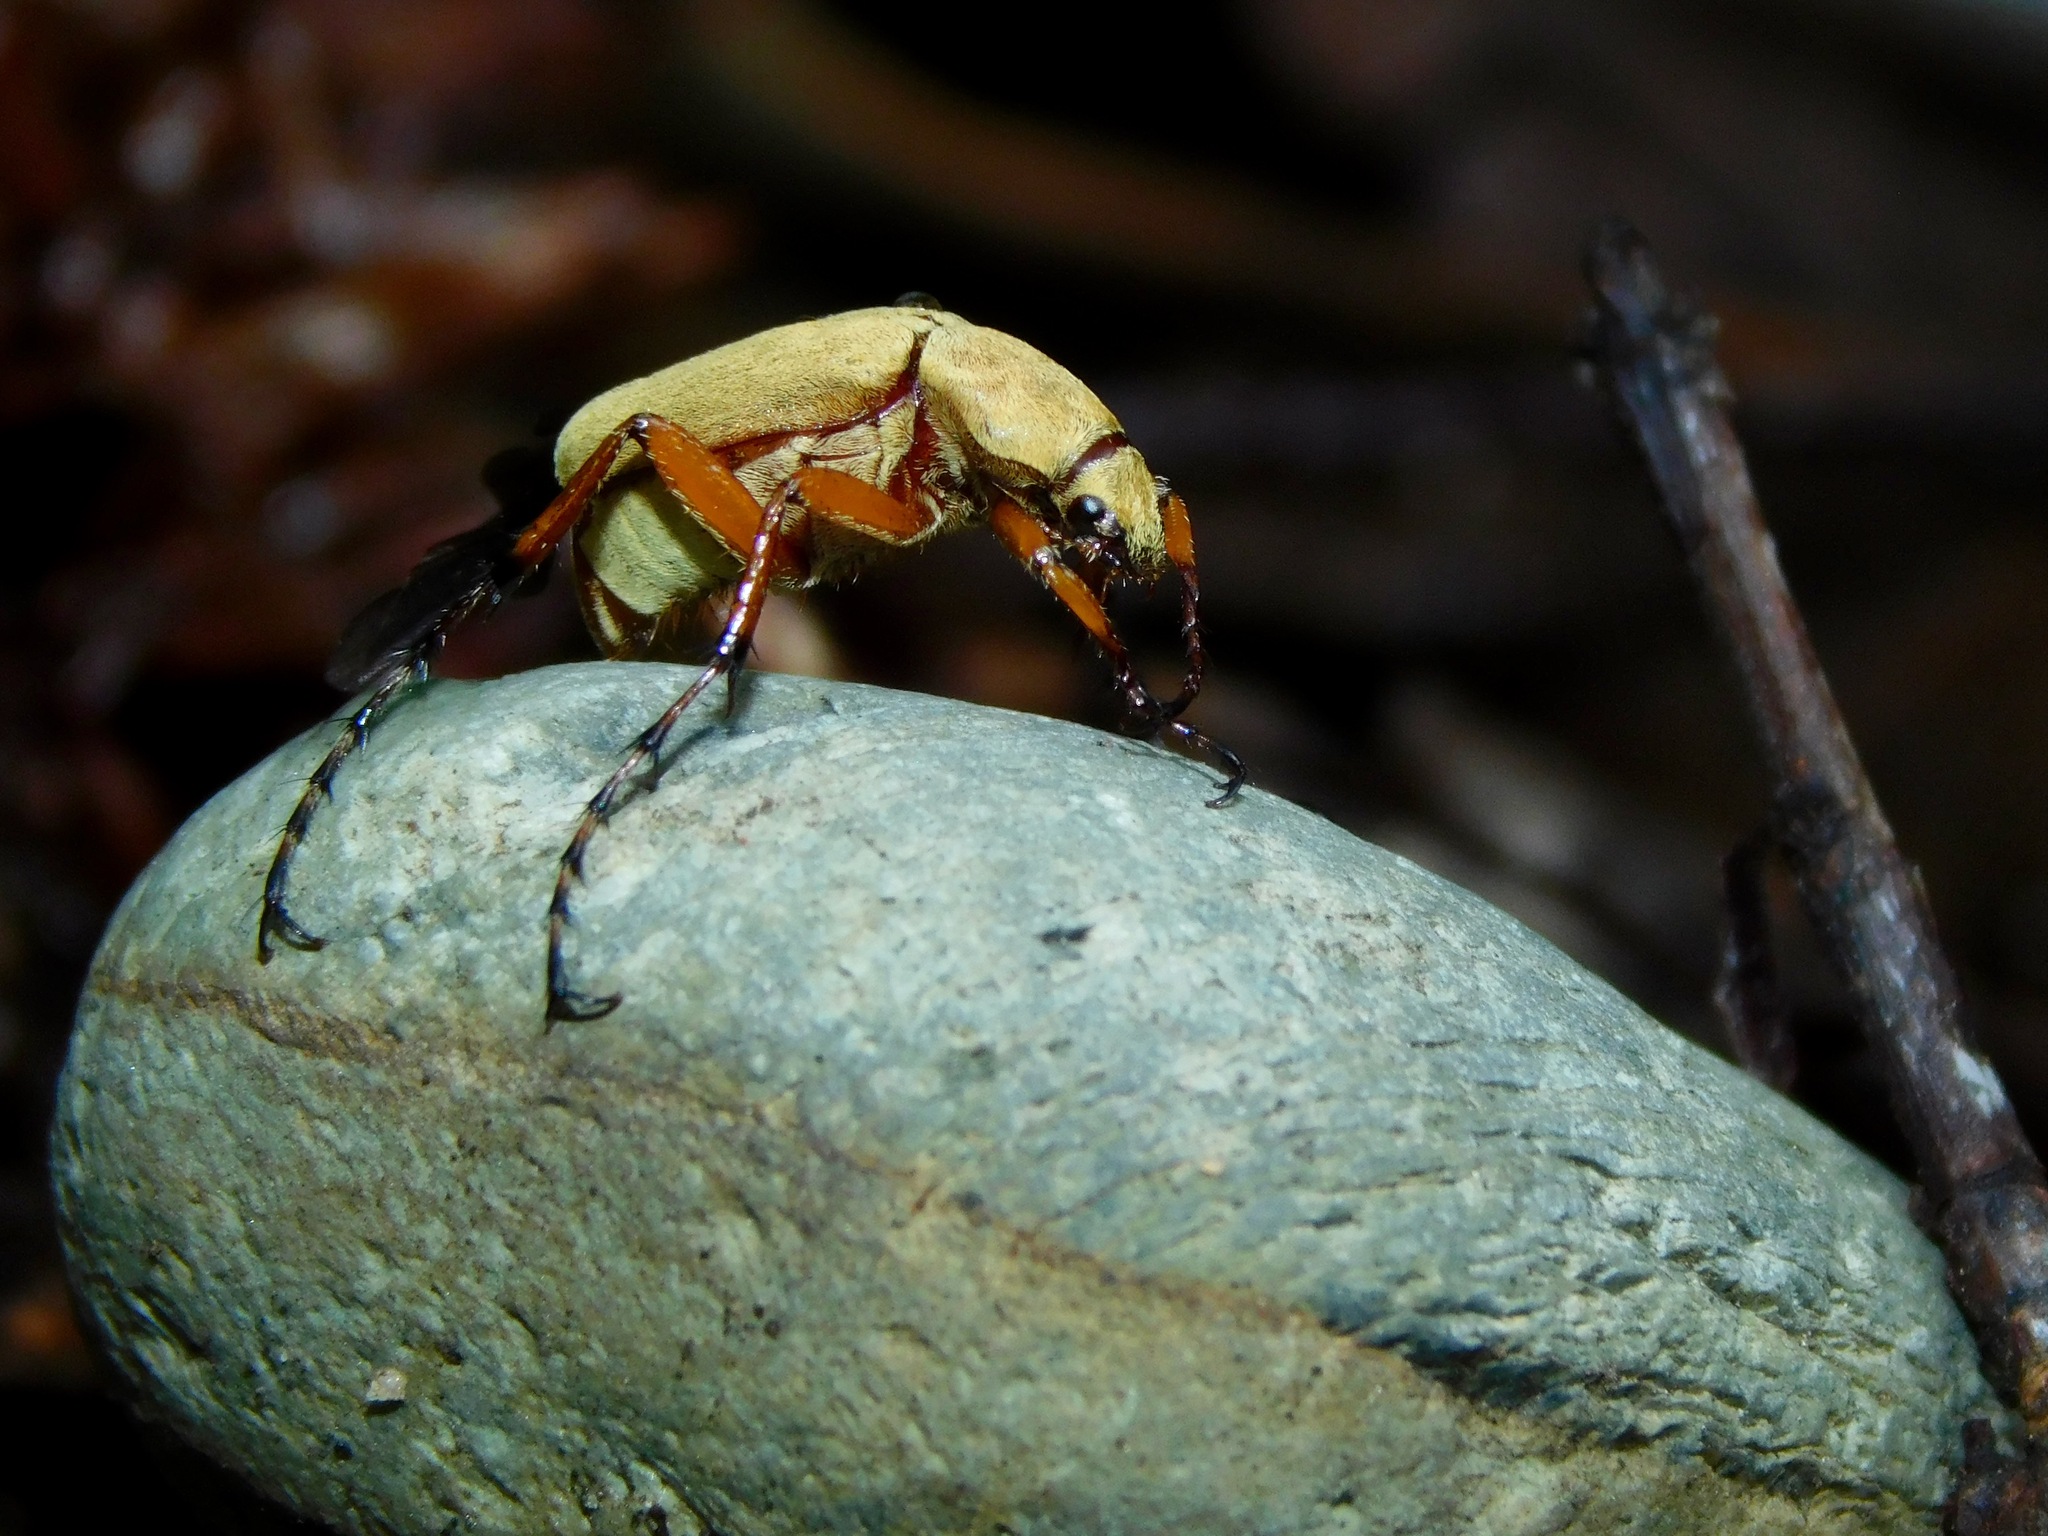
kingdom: Animalia
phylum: Arthropoda
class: Insecta
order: Coleoptera
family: Scarabaeidae
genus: Macrodactylus
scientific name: Macrodactylus subspinosus
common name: American rose chafer
